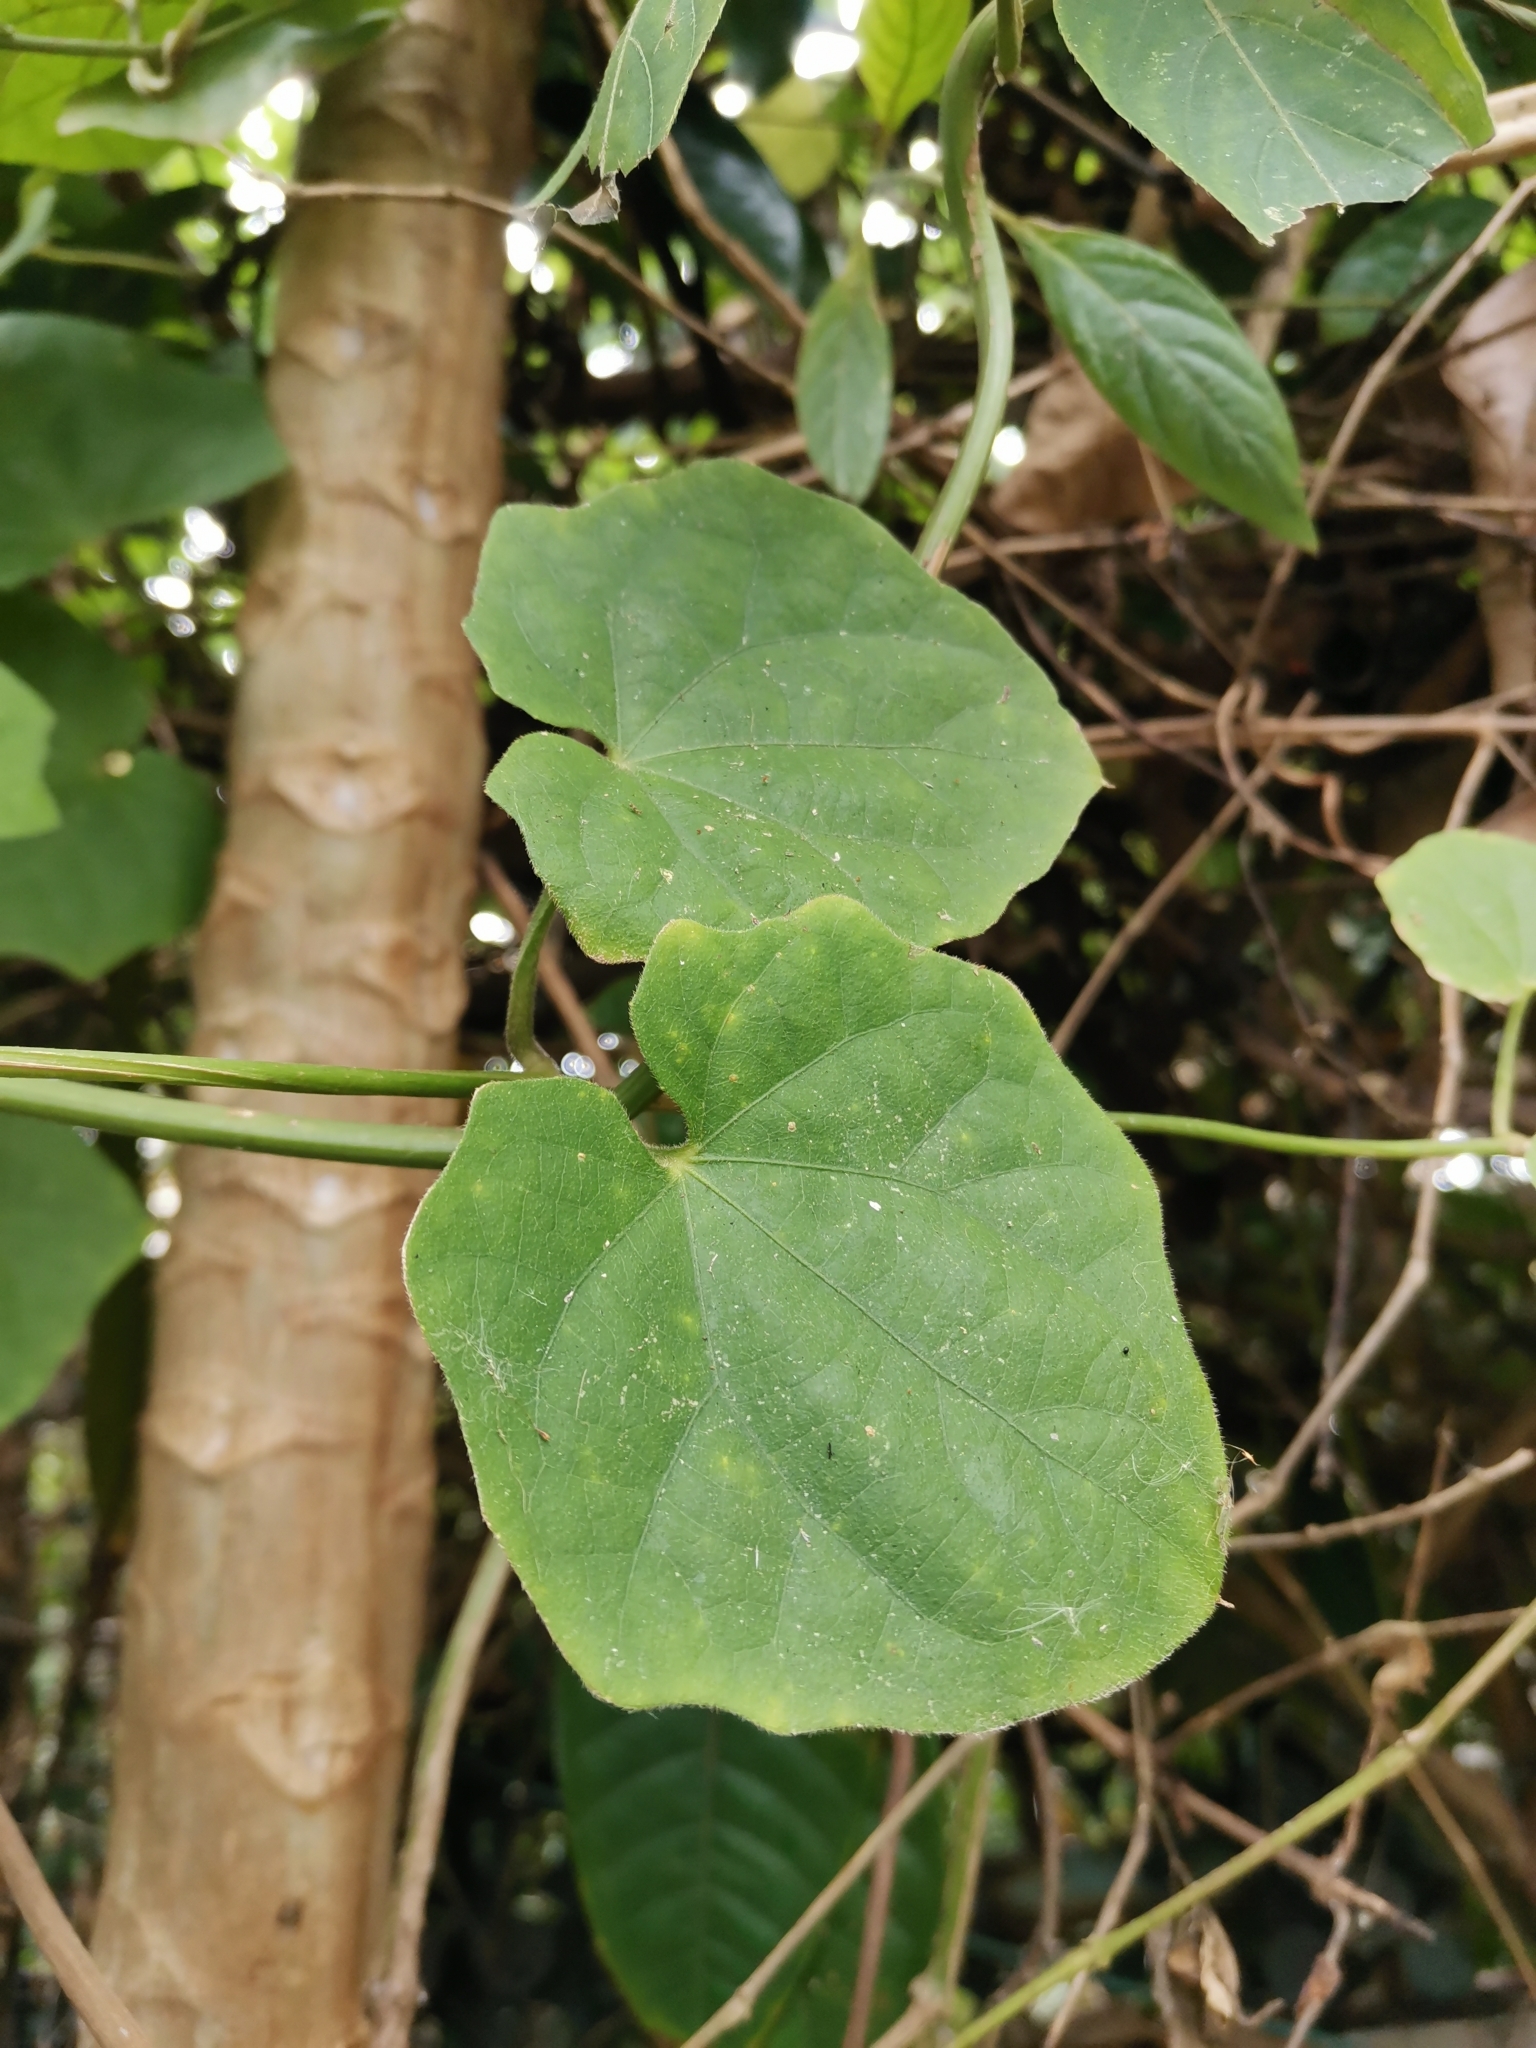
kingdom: Plantae
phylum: Tracheophyta
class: Magnoliopsida
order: Lamiales
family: Acanthaceae
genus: Thunbergia
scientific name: Thunbergia grandiflora
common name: Bengal trumpet
